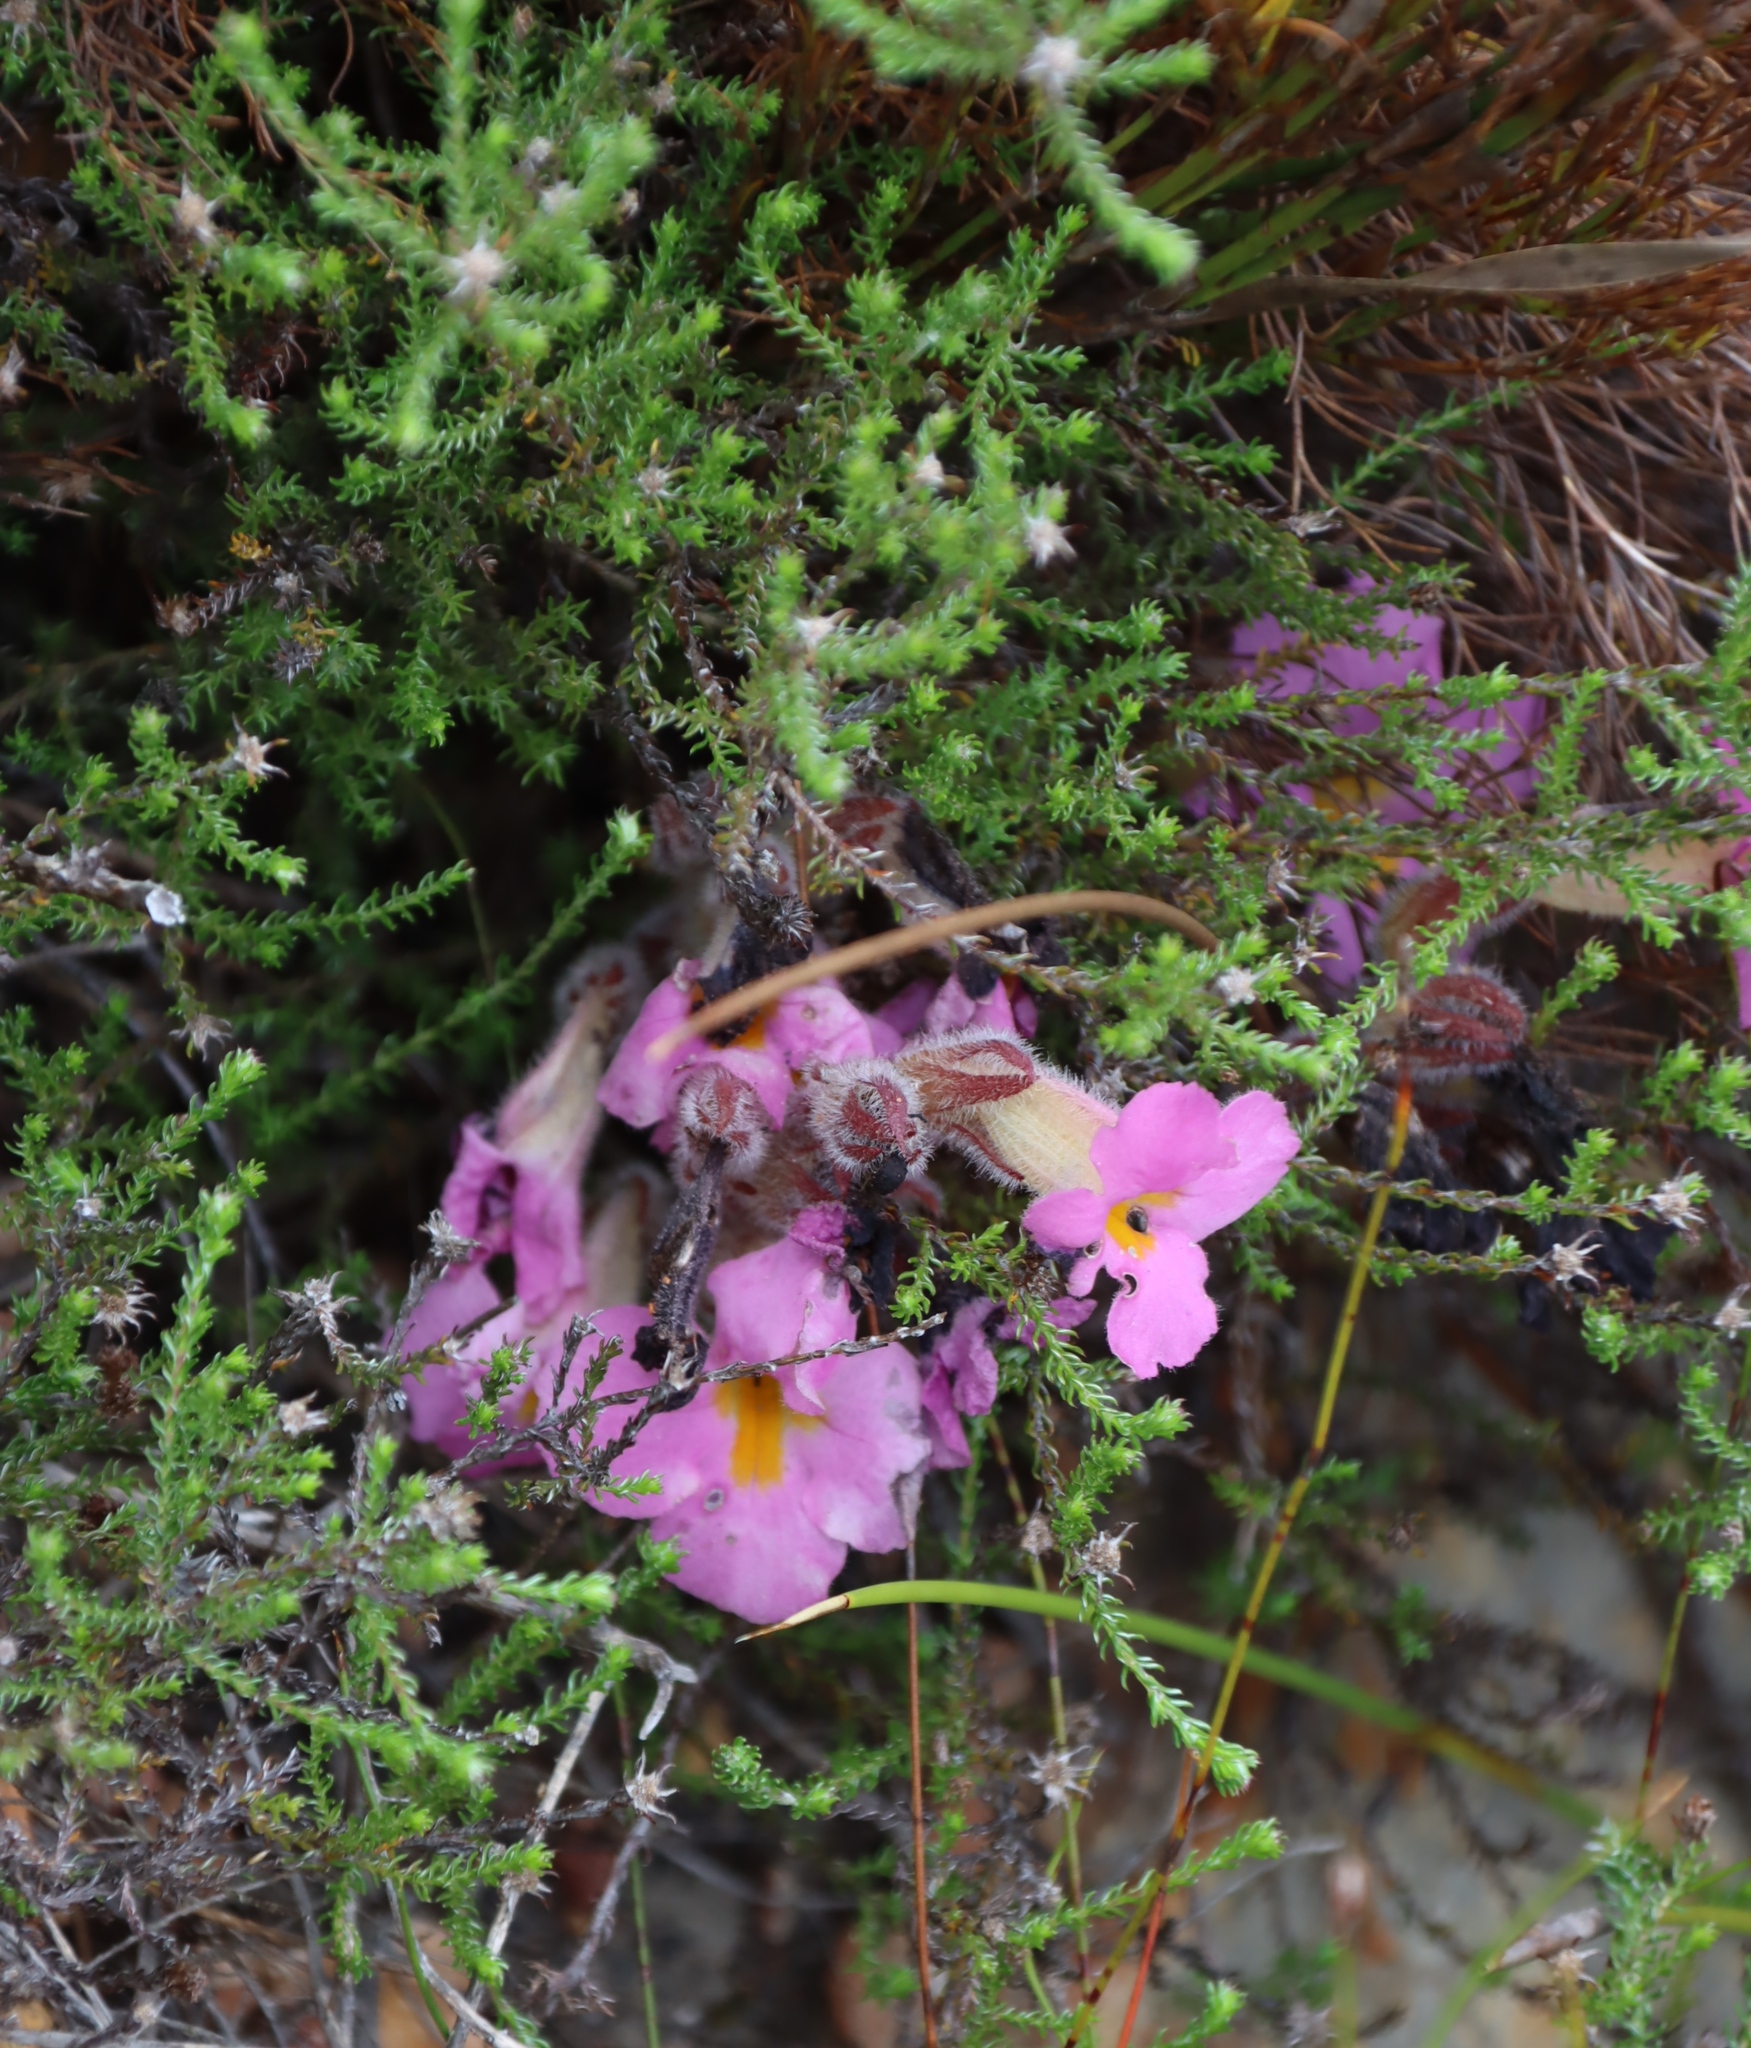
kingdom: Plantae
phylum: Tracheophyta
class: Magnoliopsida
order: Lamiales
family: Orobanchaceae
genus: Harveya
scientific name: Harveya purpurea
